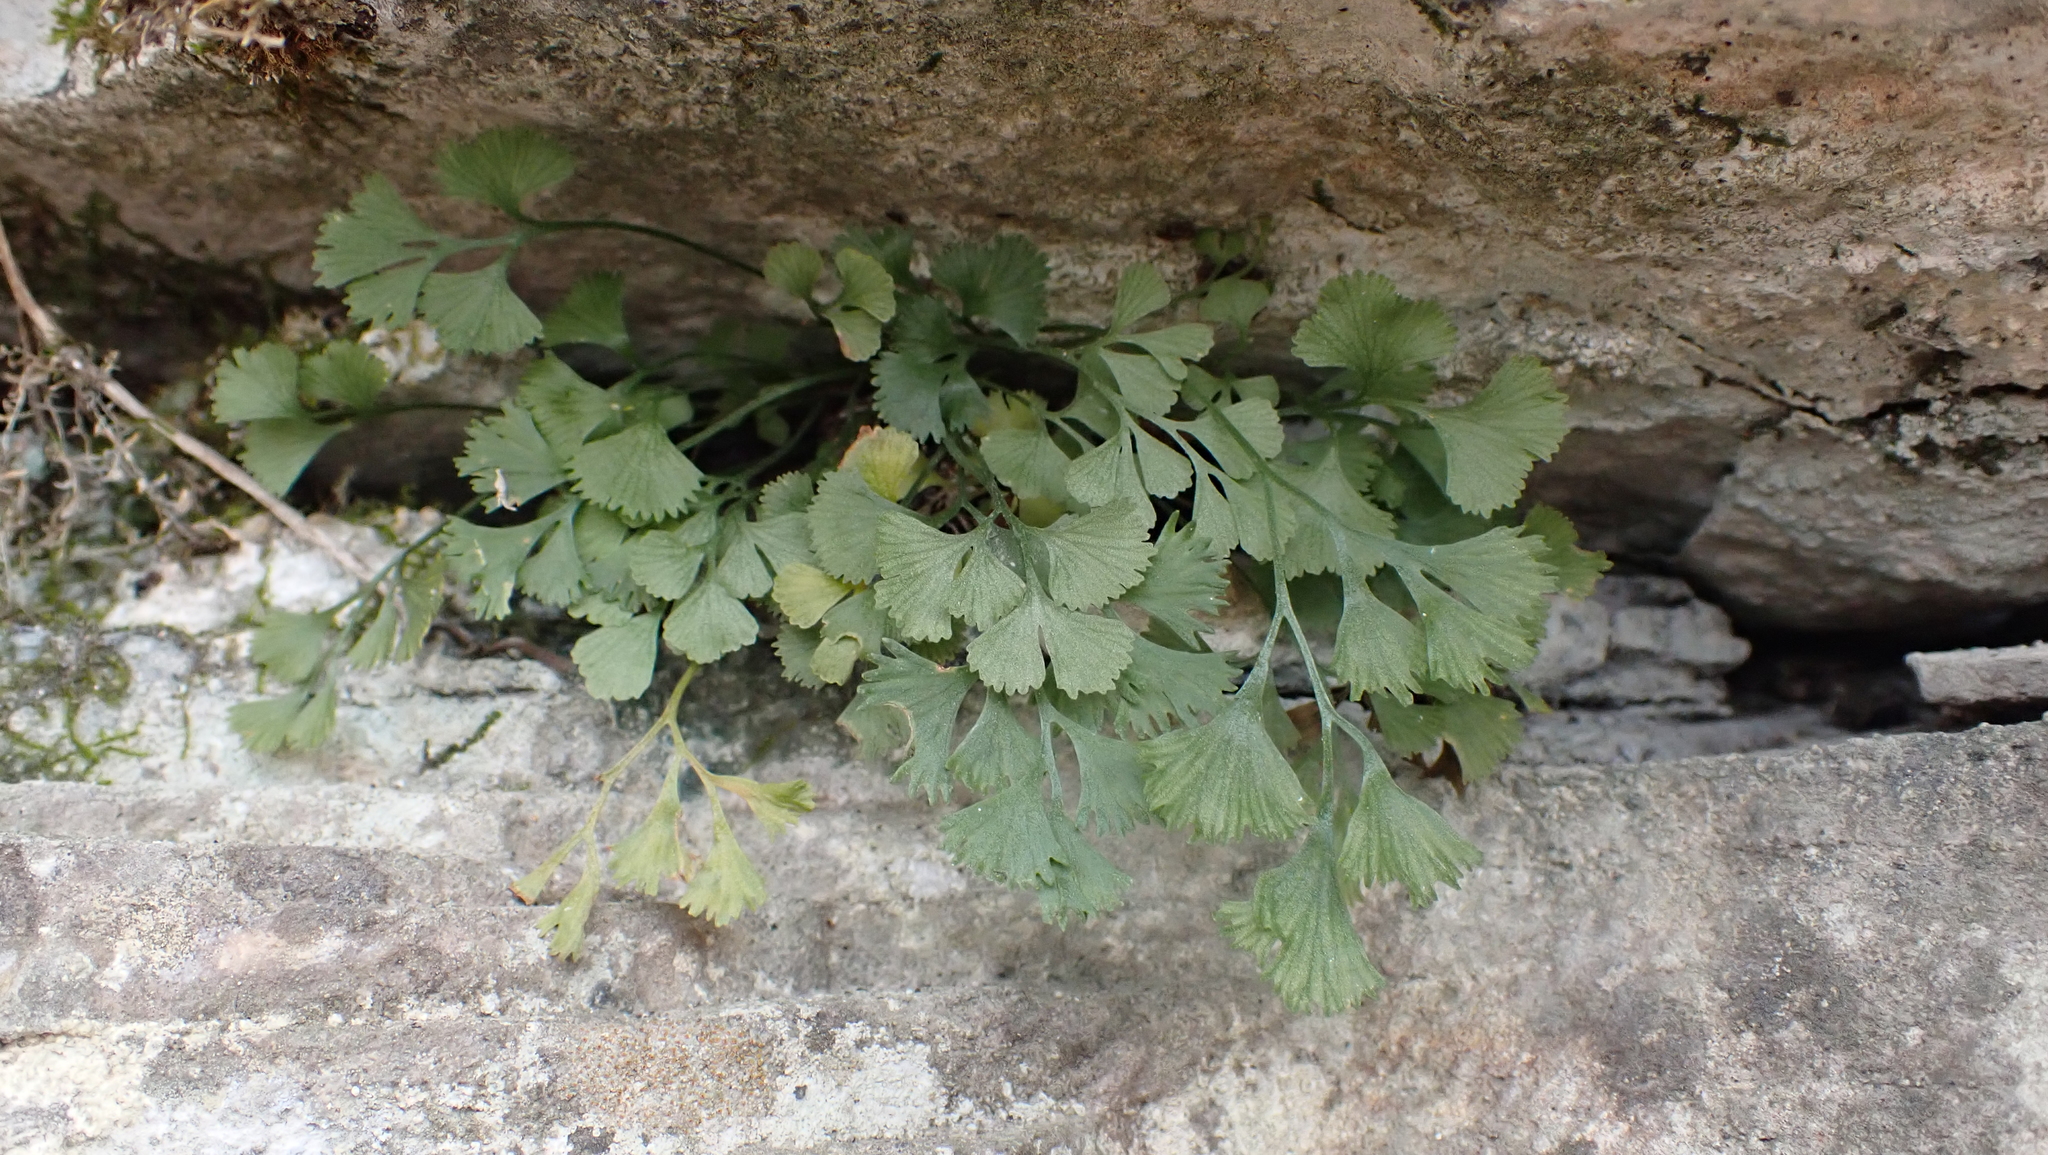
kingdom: Plantae
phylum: Tracheophyta
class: Polypodiopsida
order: Polypodiales
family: Aspleniaceae
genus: Asplenium
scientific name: Asplenium ruta-muraria
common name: Wall-rue
